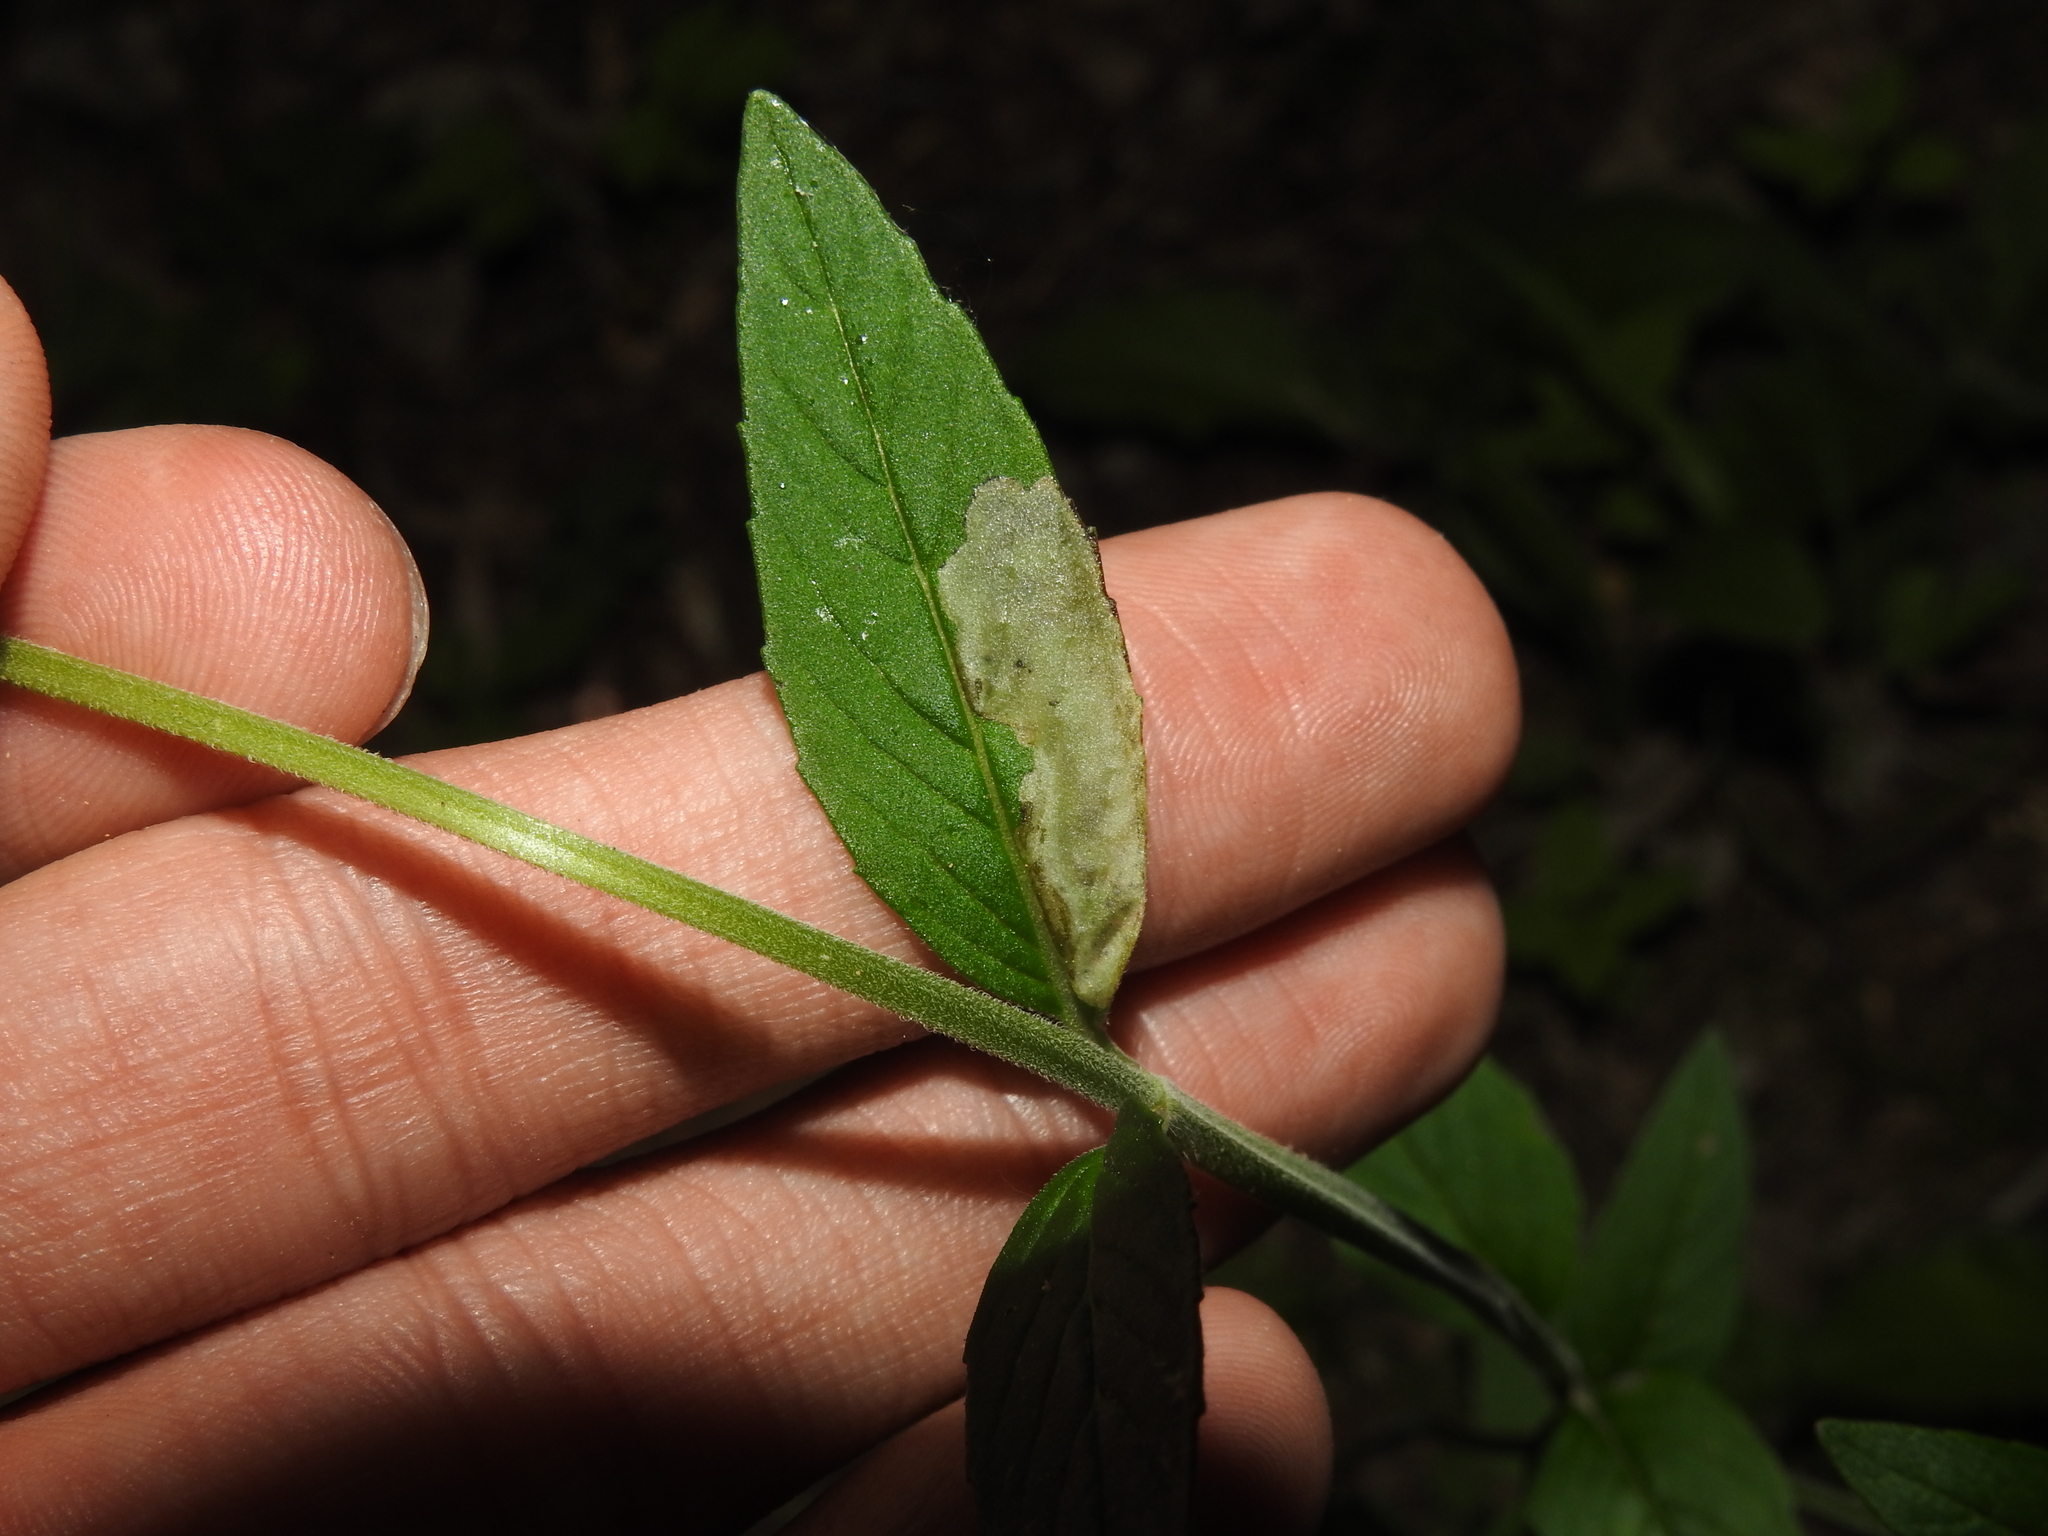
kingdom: Animalia
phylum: Arthropoda
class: Insecta
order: Diptera
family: Agromyzidae
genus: Calycomyza
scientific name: Calycomyza menthae
